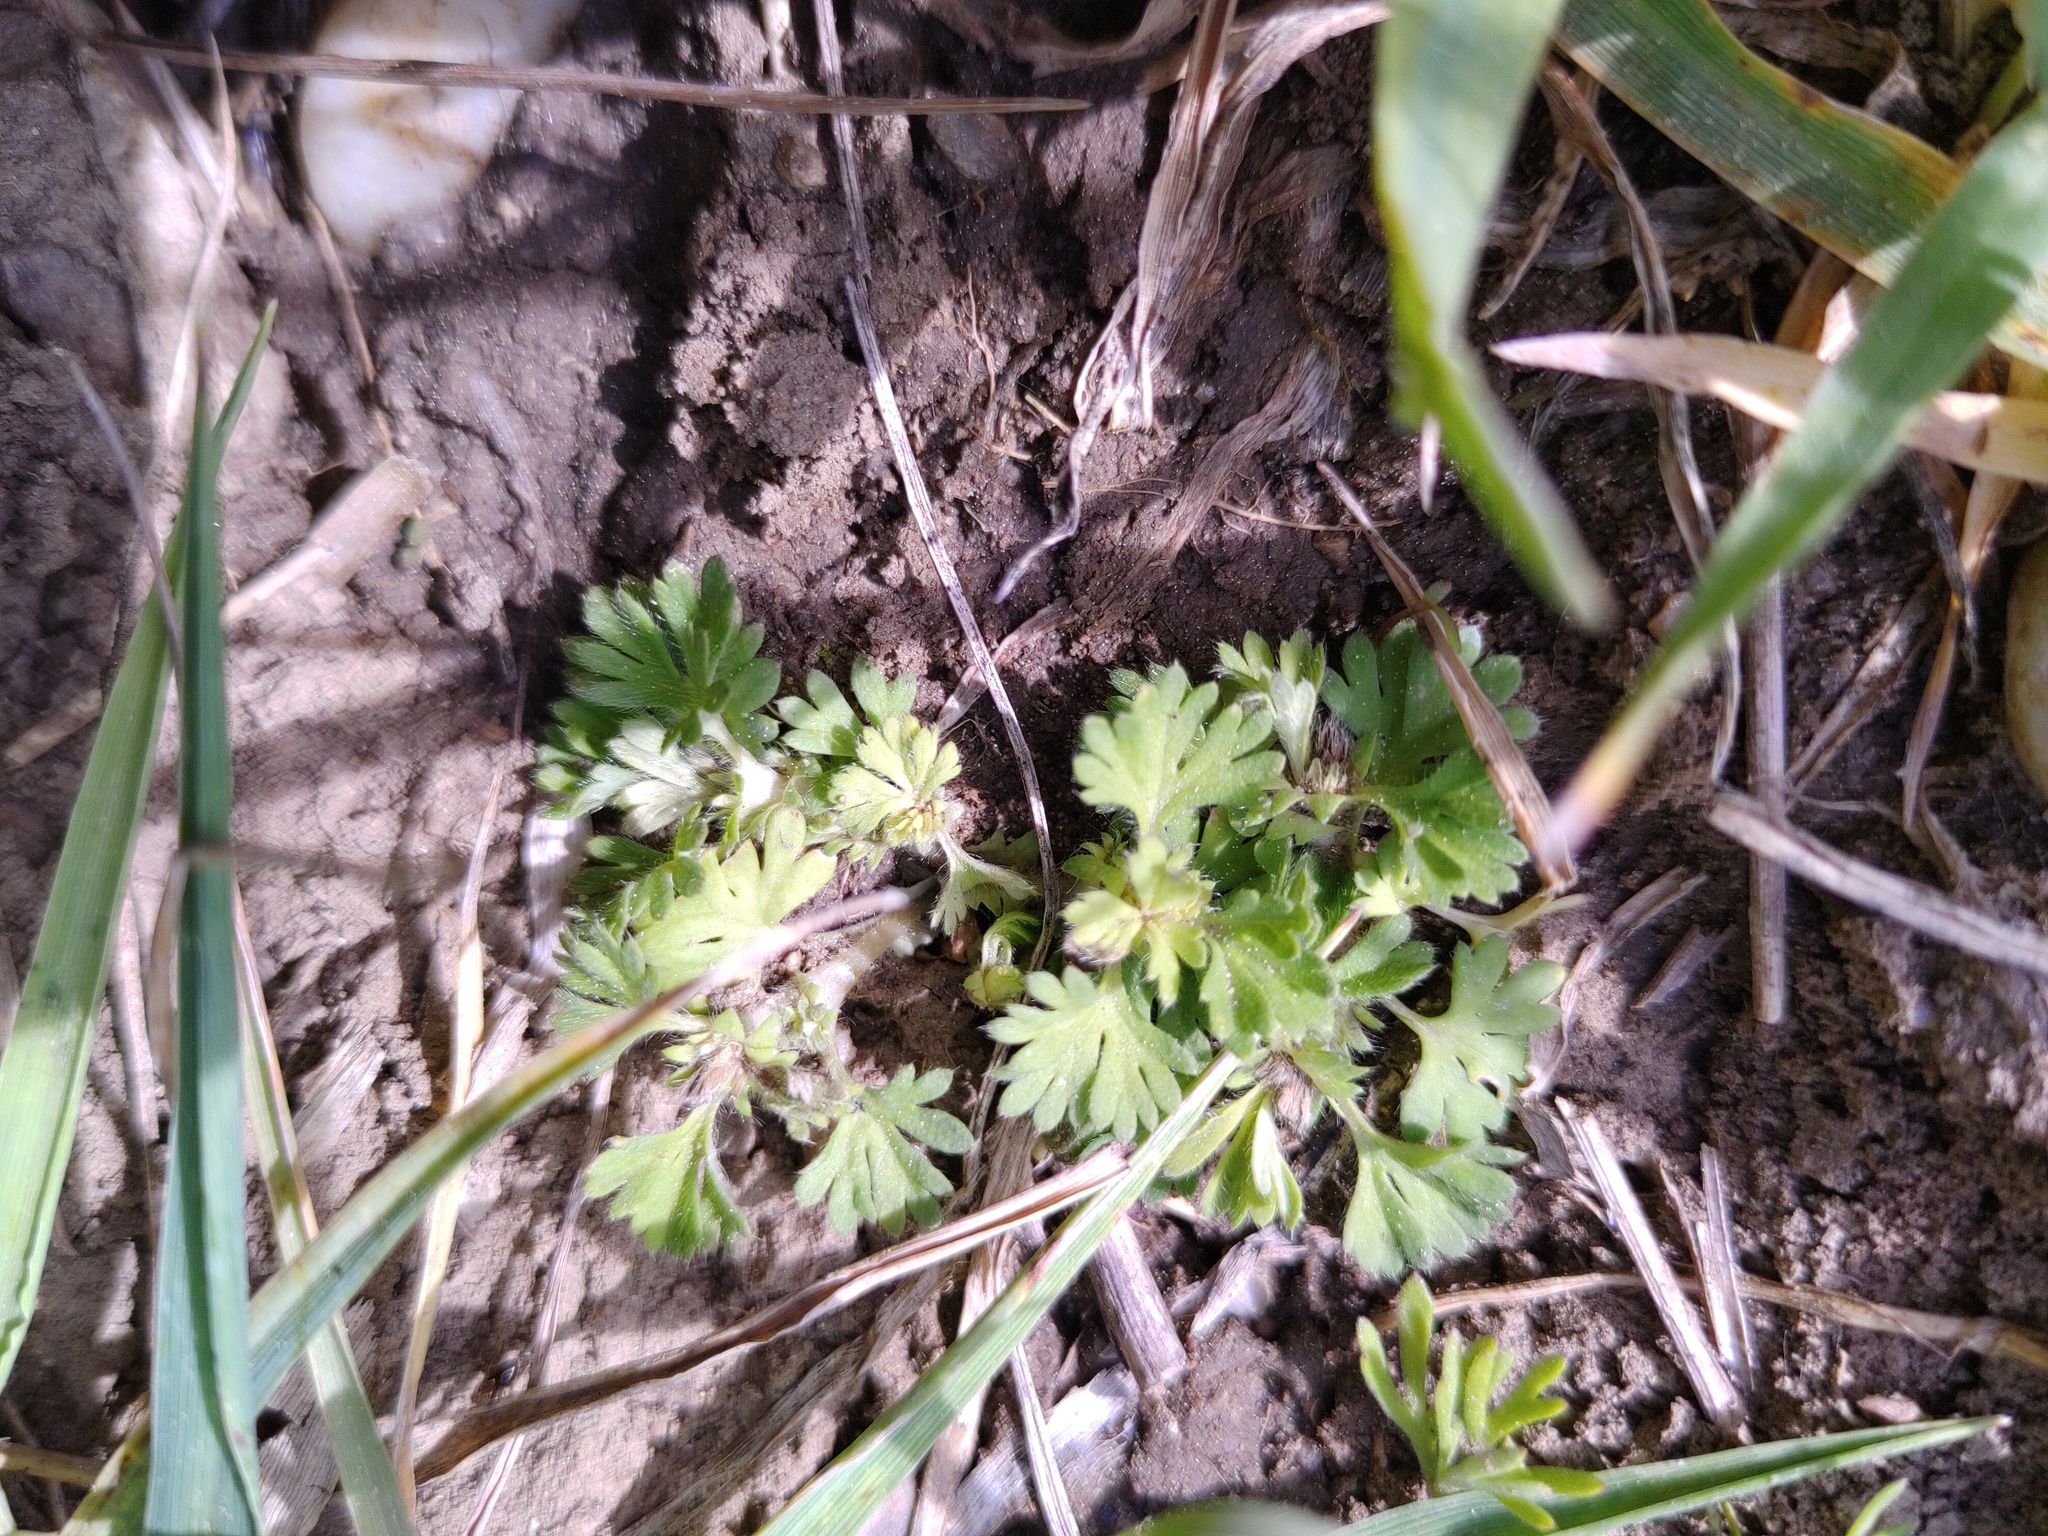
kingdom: Plantae
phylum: Tracheophyta
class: Magnoliopsida
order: Rosales
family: Rosaceae
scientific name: Rosaceae
